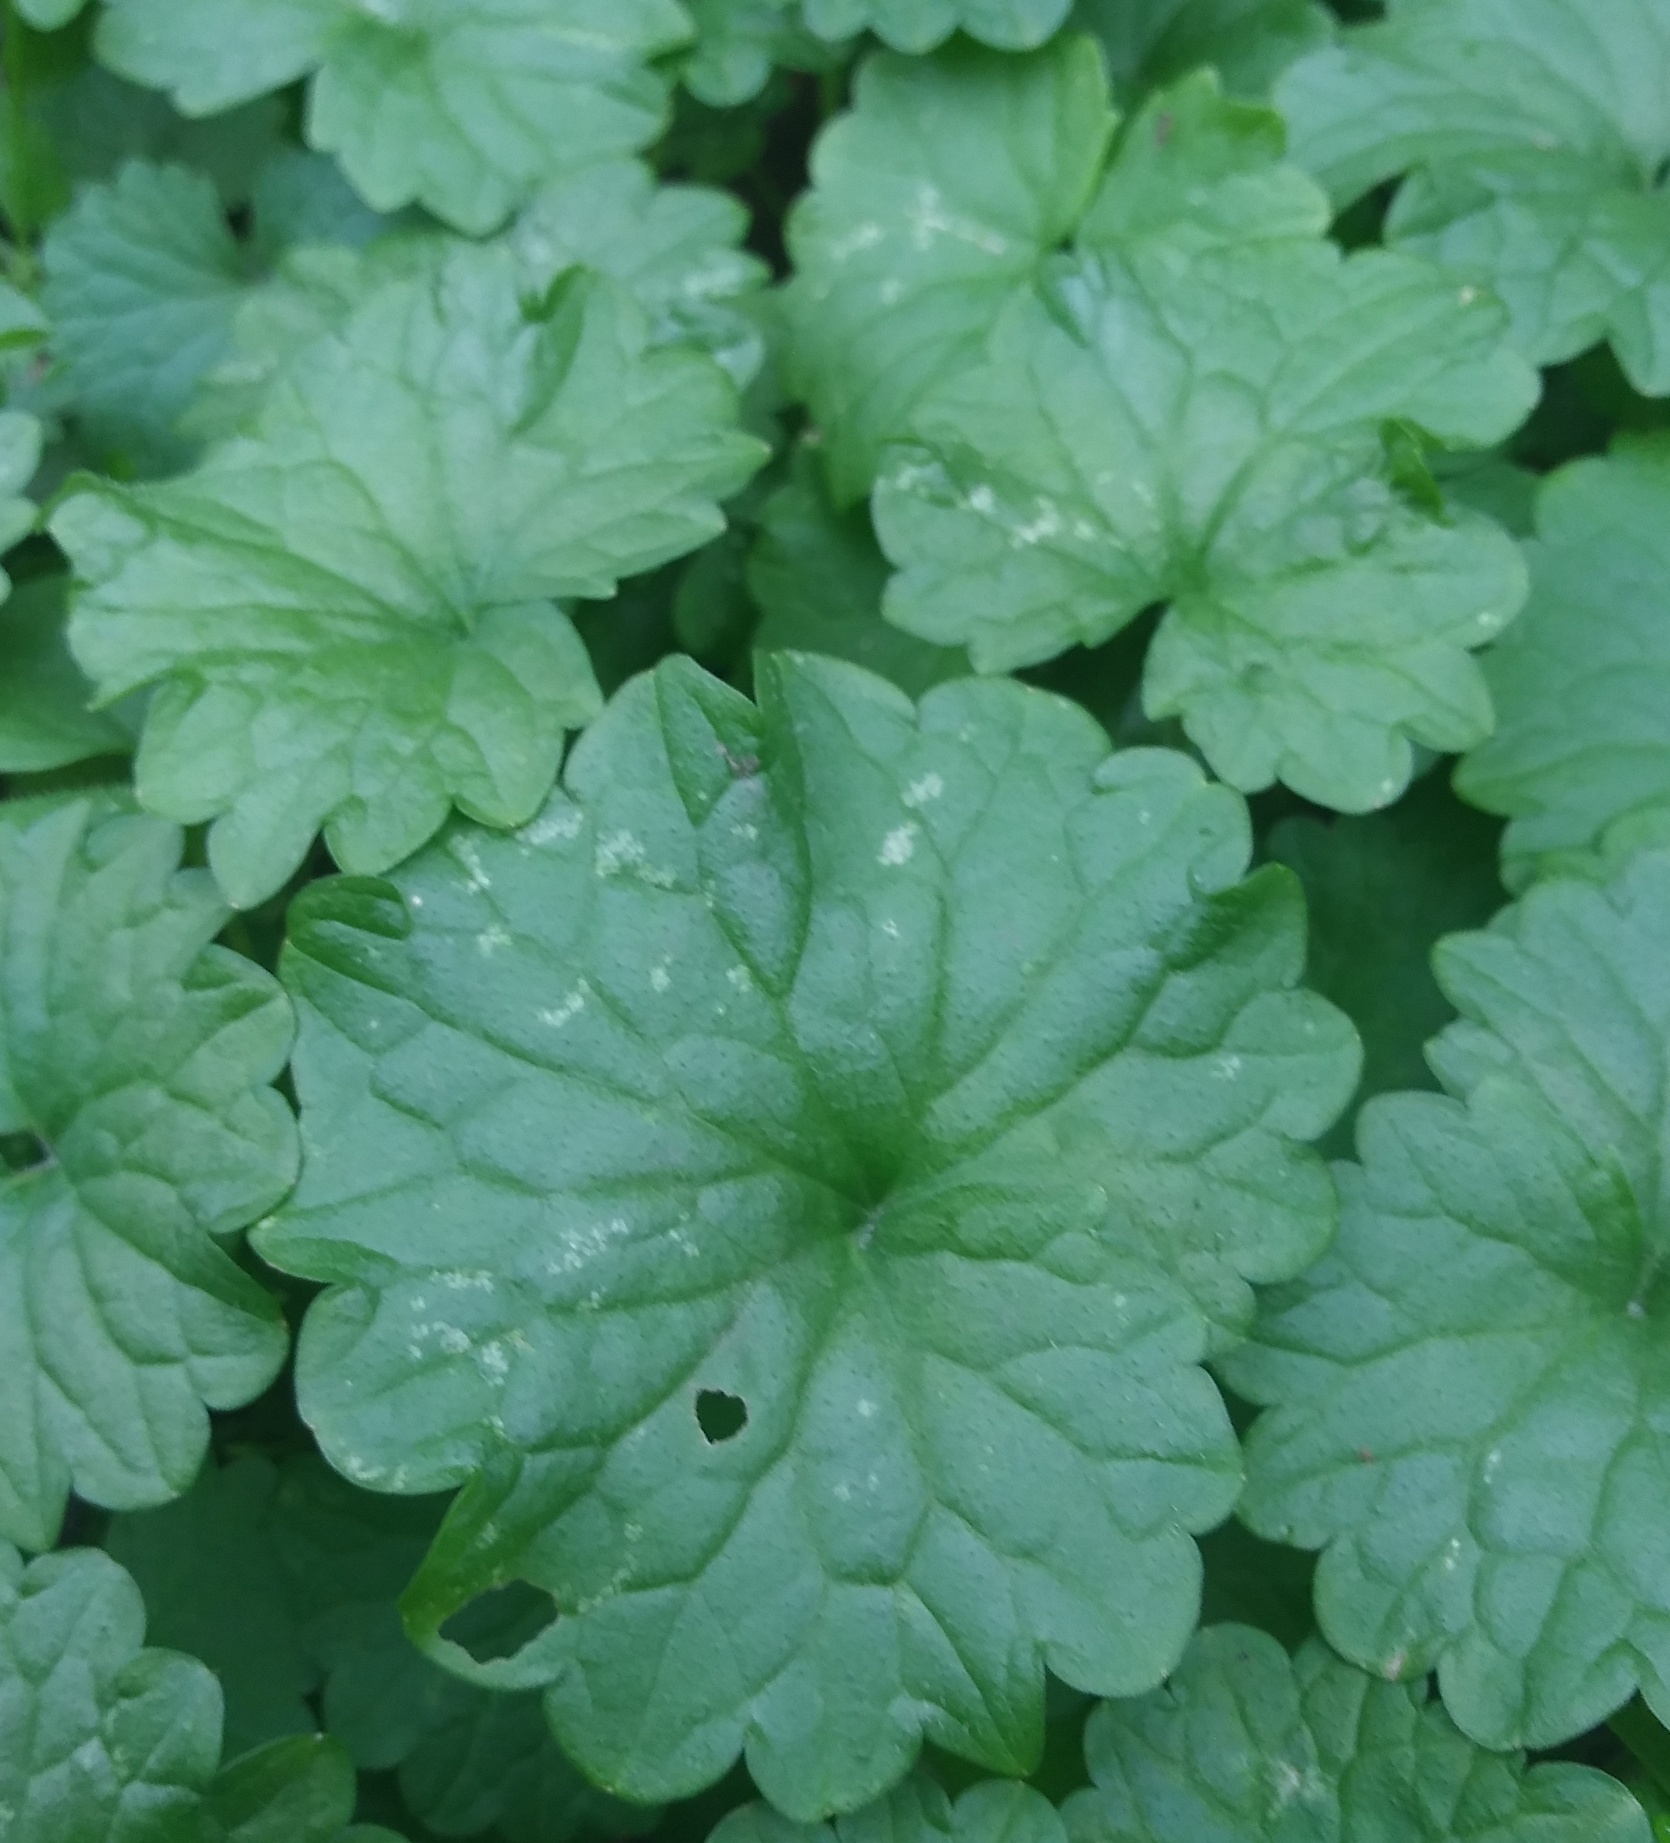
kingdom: Plantae
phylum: Tracheophyta
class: Magnoliopsida
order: Lamiales
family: Lamiaceae
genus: Glechoma
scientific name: Glechoma hederacea
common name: Ground ivy
